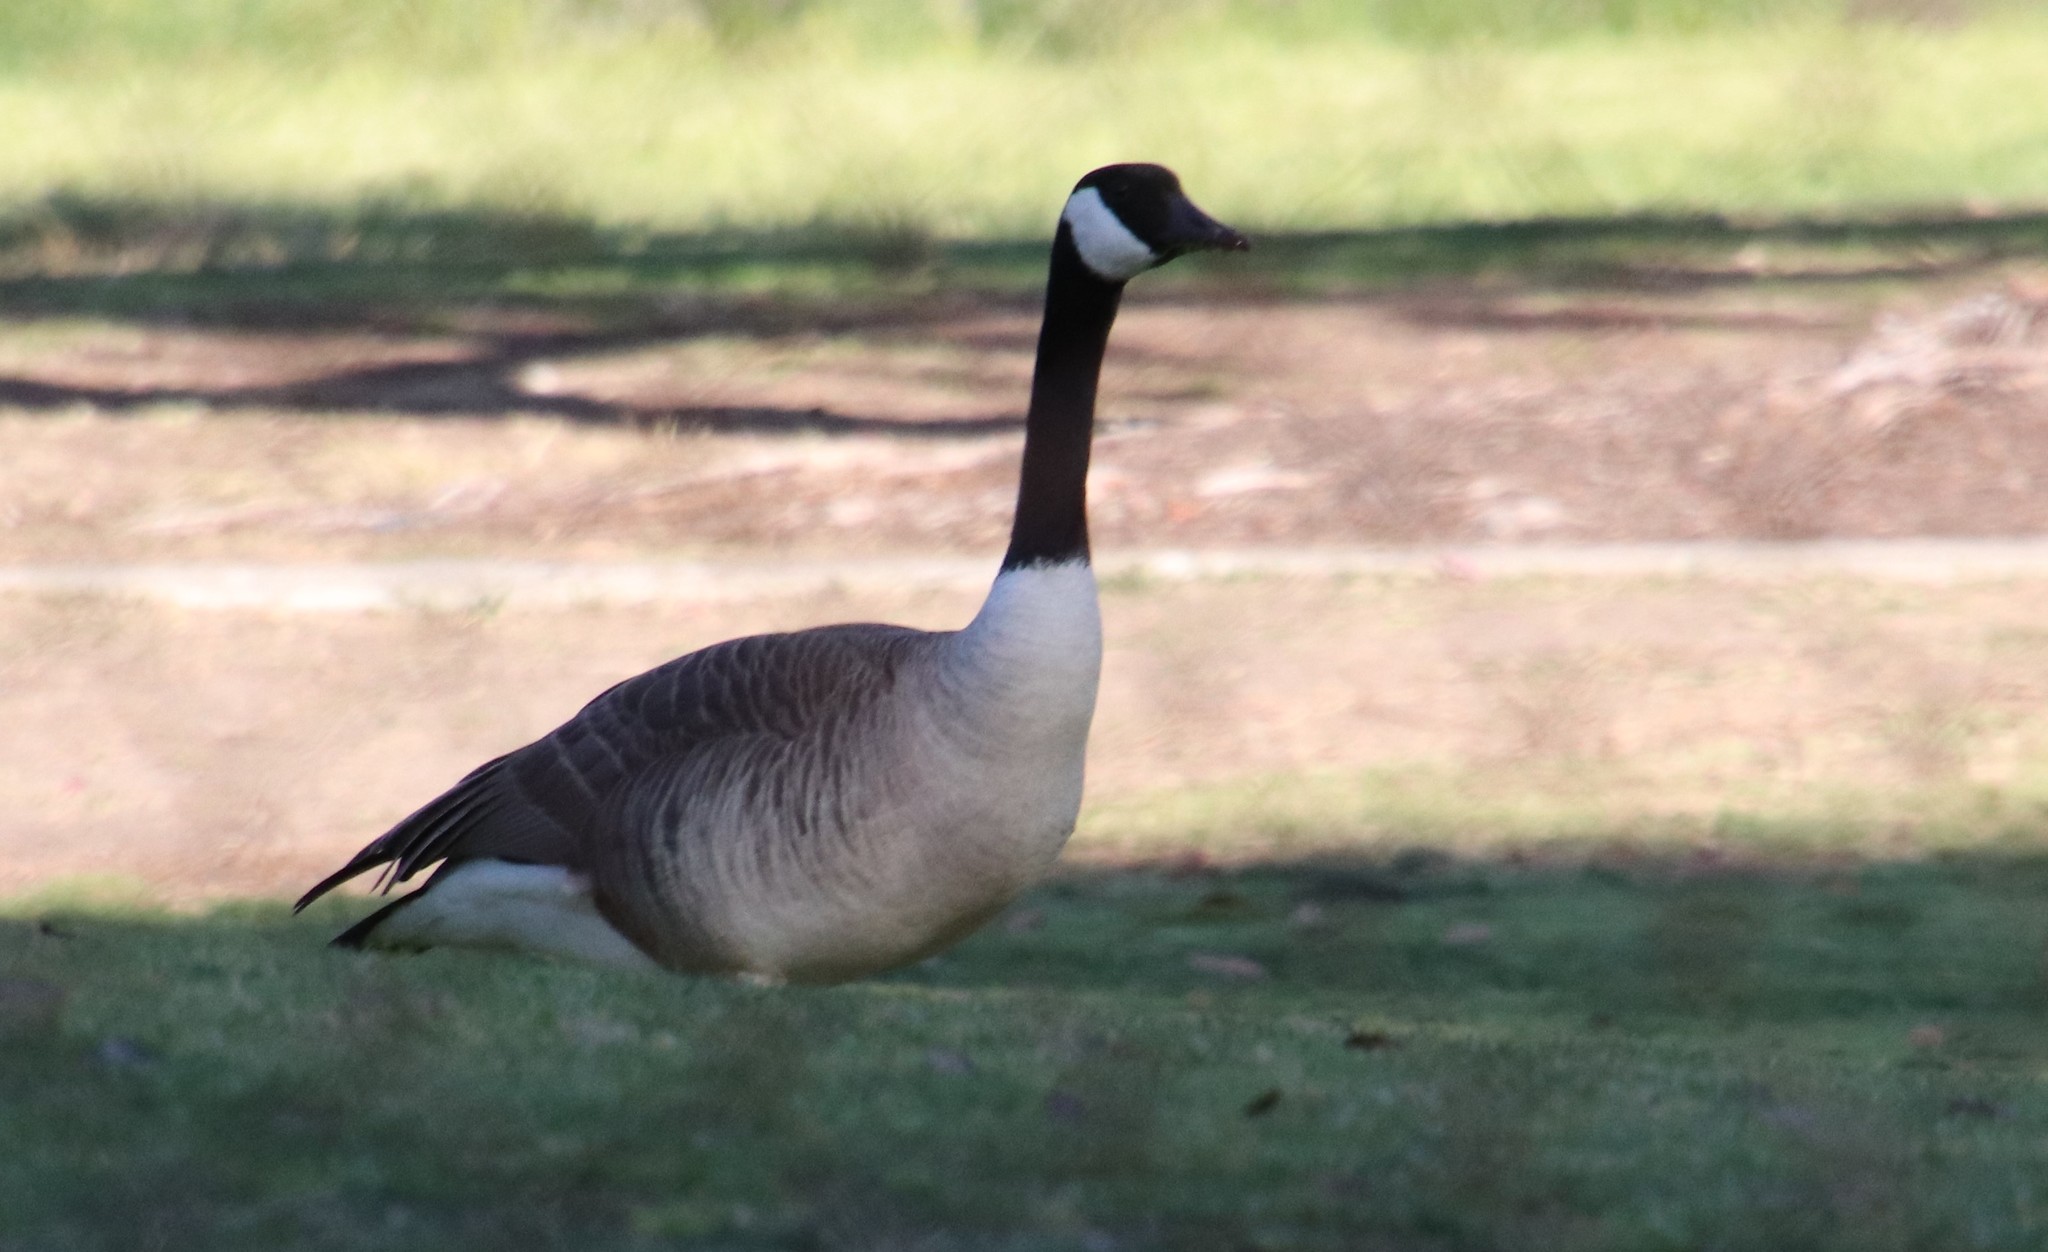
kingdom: Animalia
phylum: Chordata
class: Aves
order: Anseriformes
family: Anatidae
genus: Branta
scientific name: Branta canadensis
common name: Canada goose
